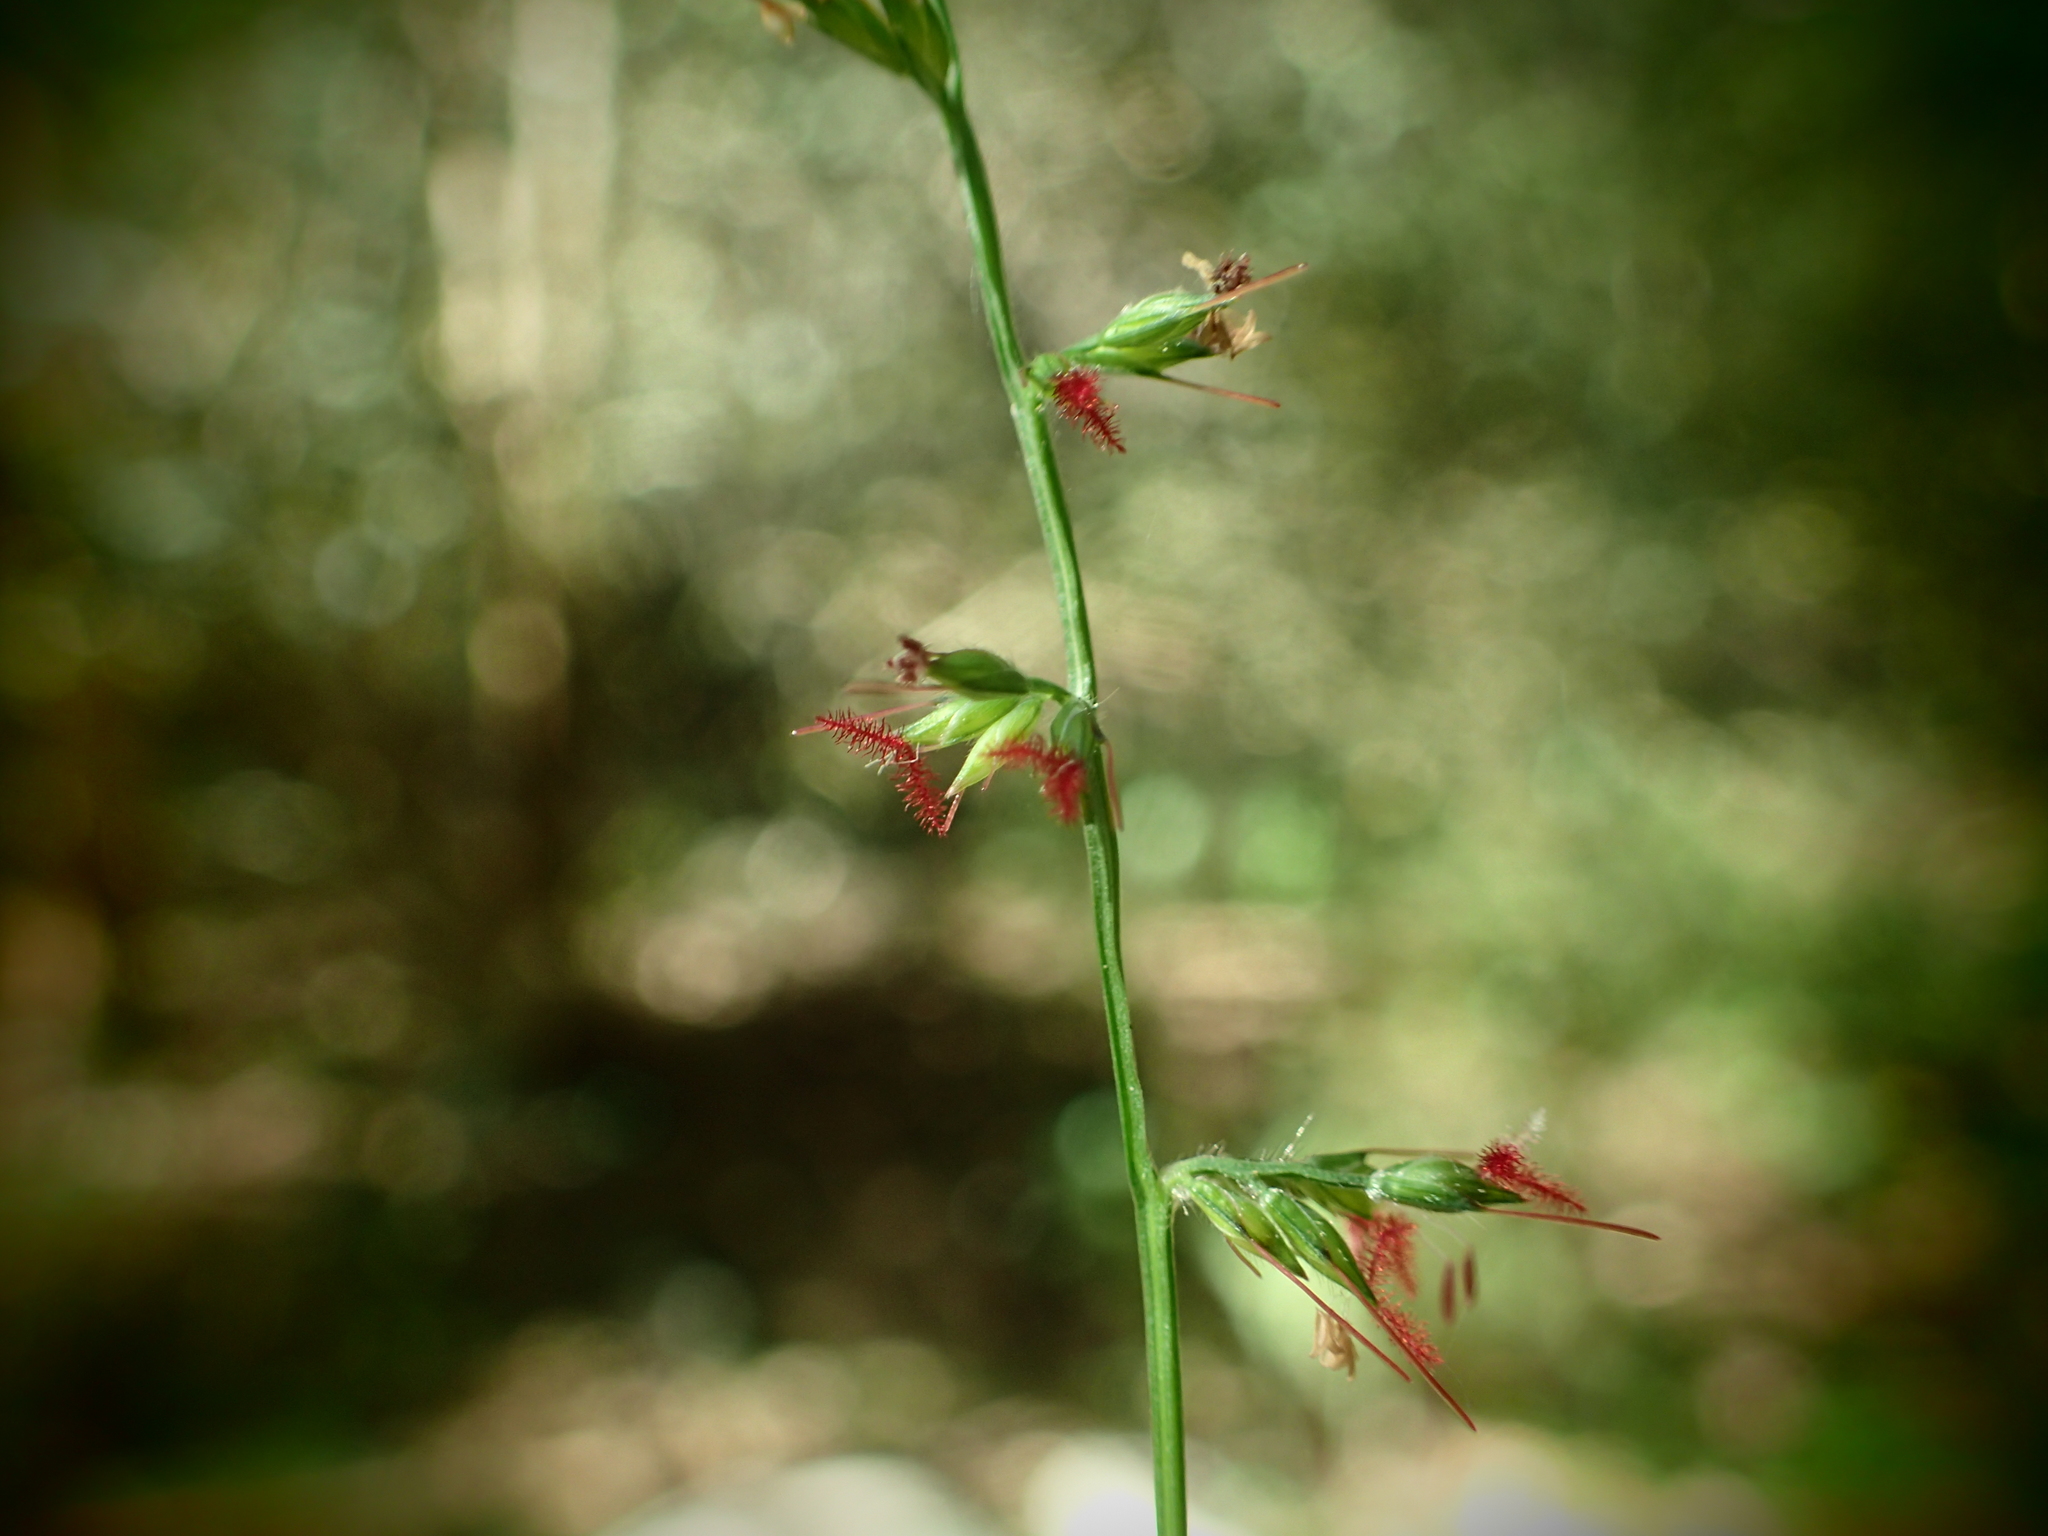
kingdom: Plantae
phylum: Tracheophyta
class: Liliopsida
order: Poales
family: Poaceae
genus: Oplismenus
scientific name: Oplismenus hirtellus
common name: Basketgrass
